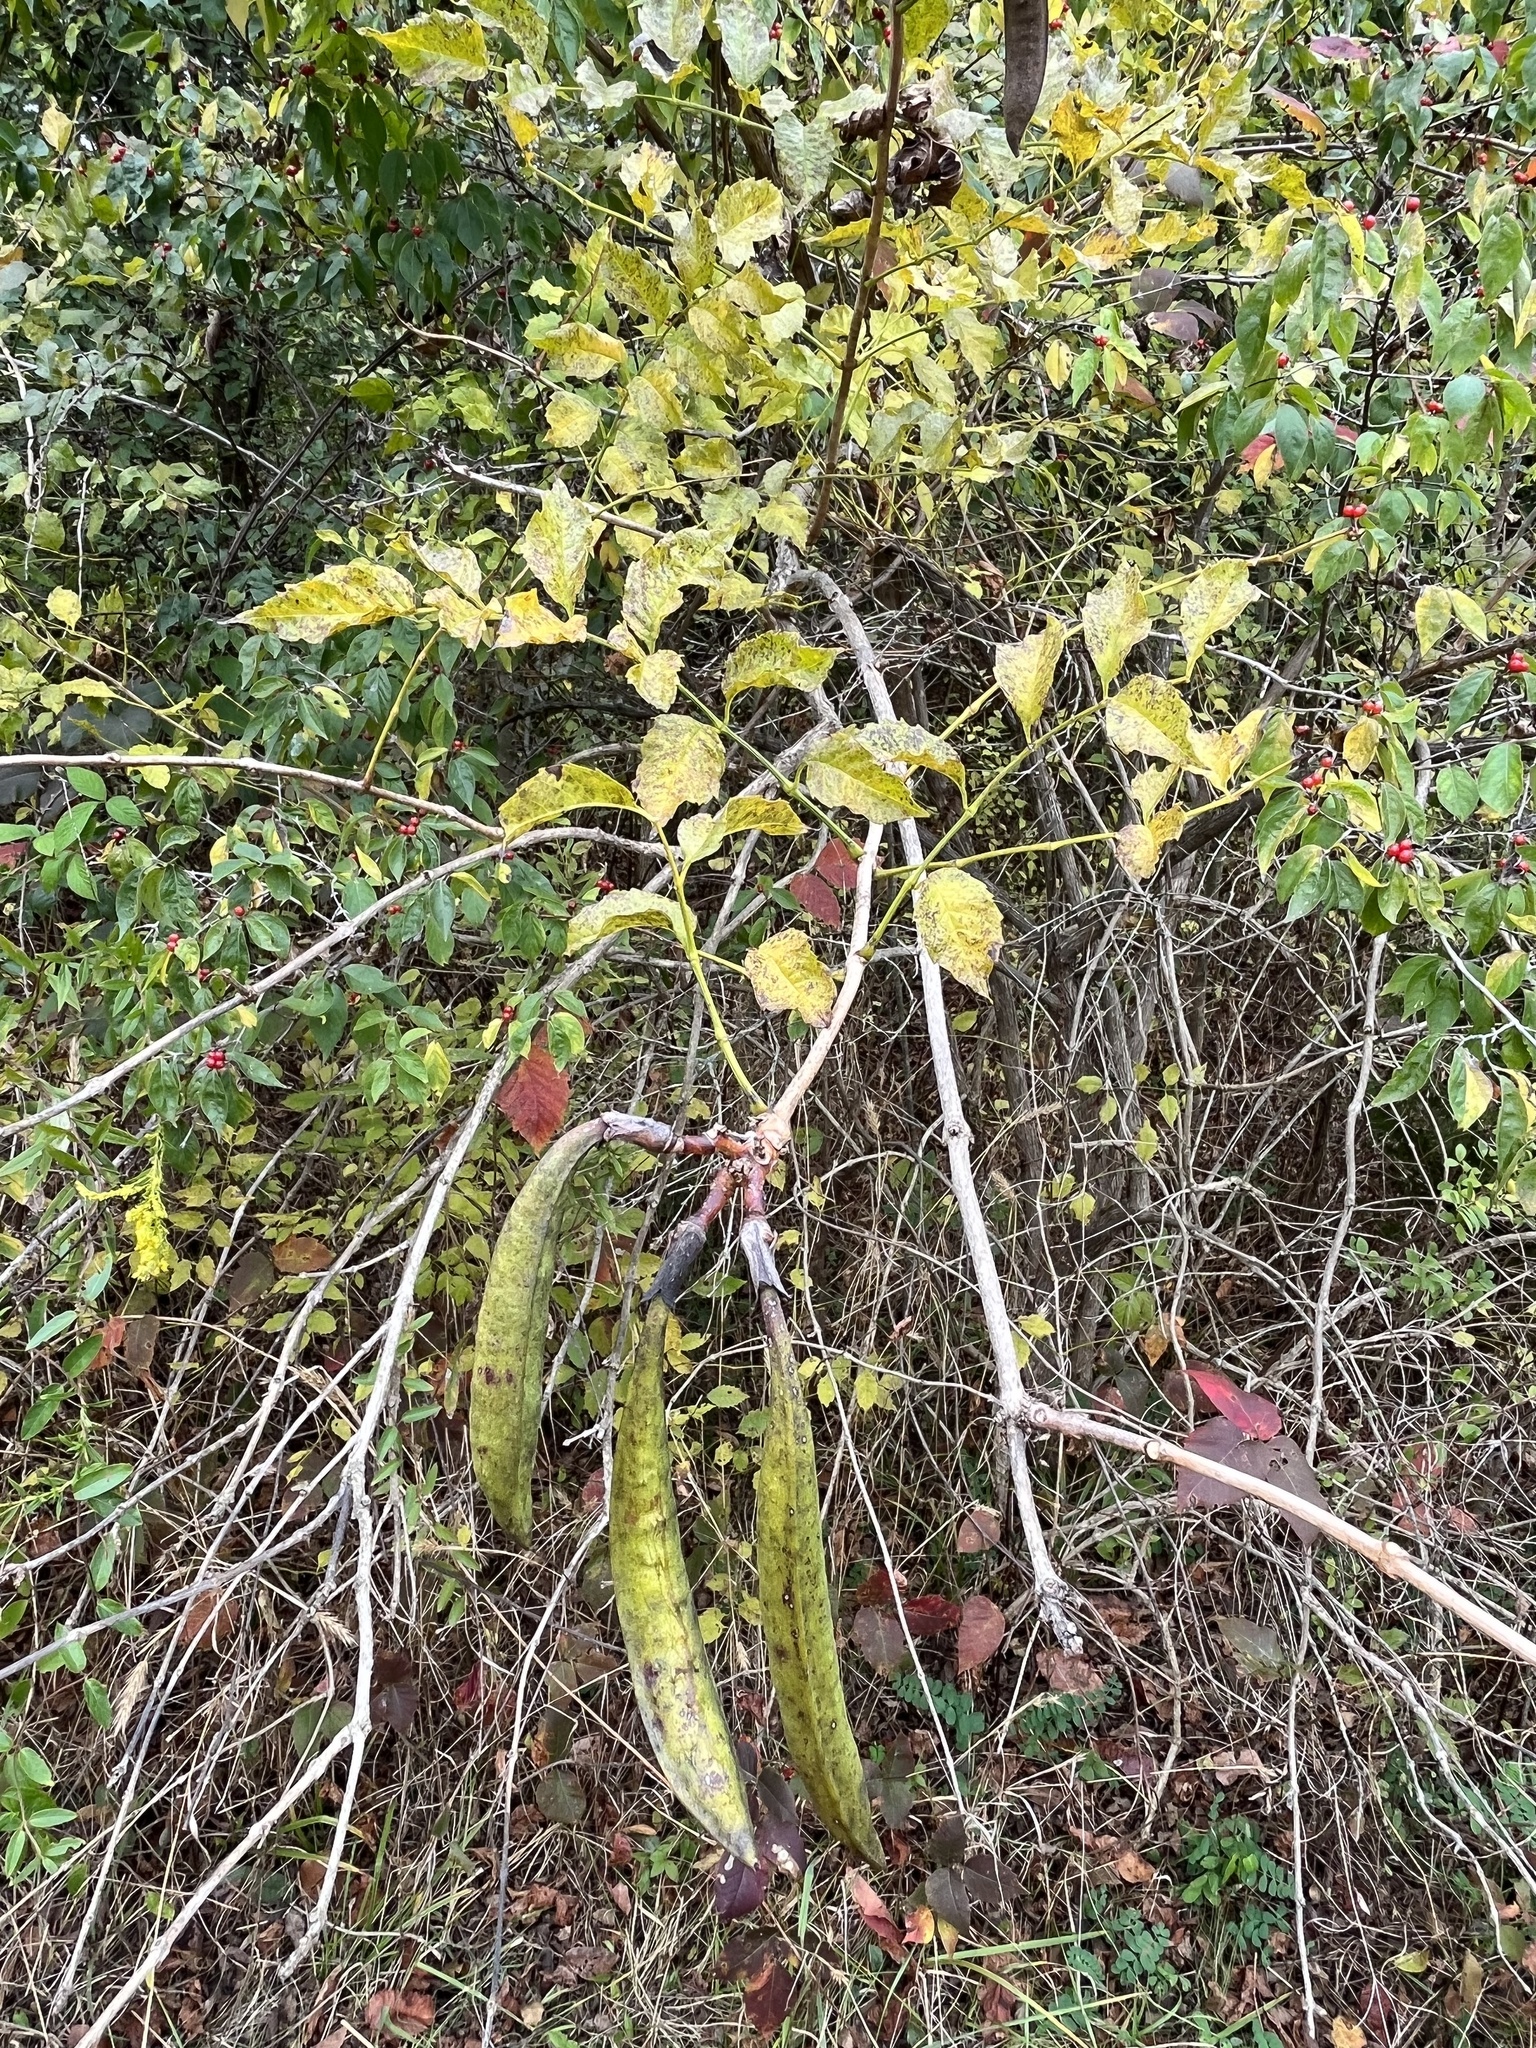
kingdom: Plantae
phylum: Tracheophyta
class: Magnoliopsida
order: Lamiales
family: Bignoniaceae
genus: Campsis
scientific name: Campsis radicans
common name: Trumpet-creeper
